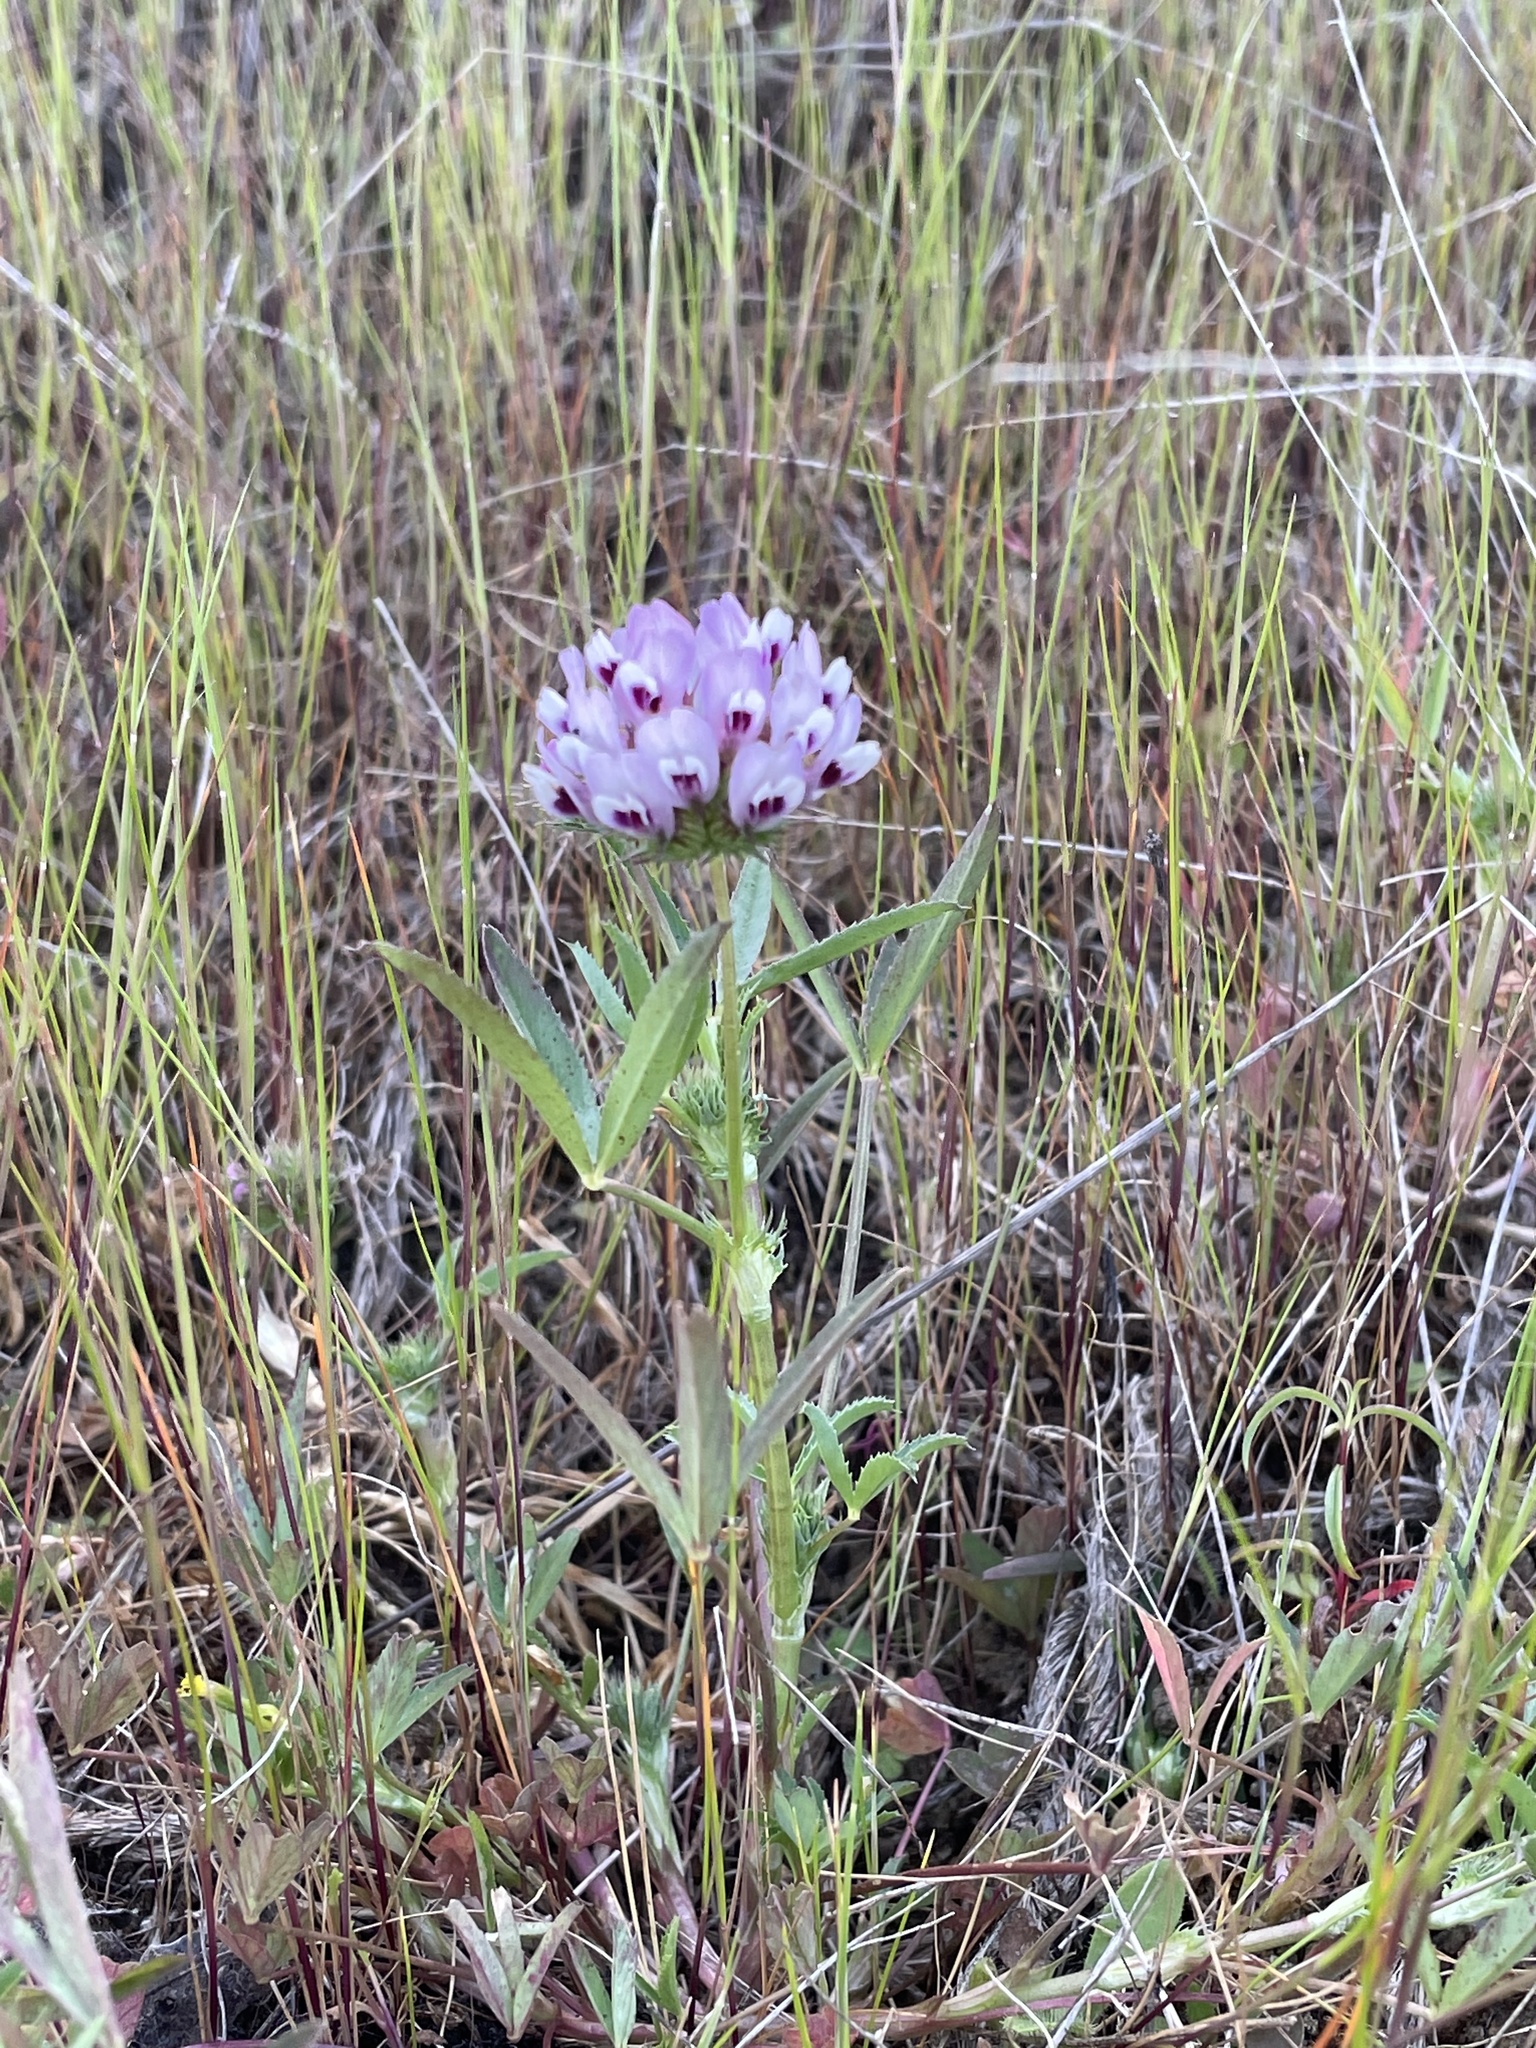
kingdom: Plantae
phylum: Tracheophyta
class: Magnoliopsida
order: Fabales
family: Fabaceae
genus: Trifolium
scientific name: Trifolium willdenovii
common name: Tomcat clover
